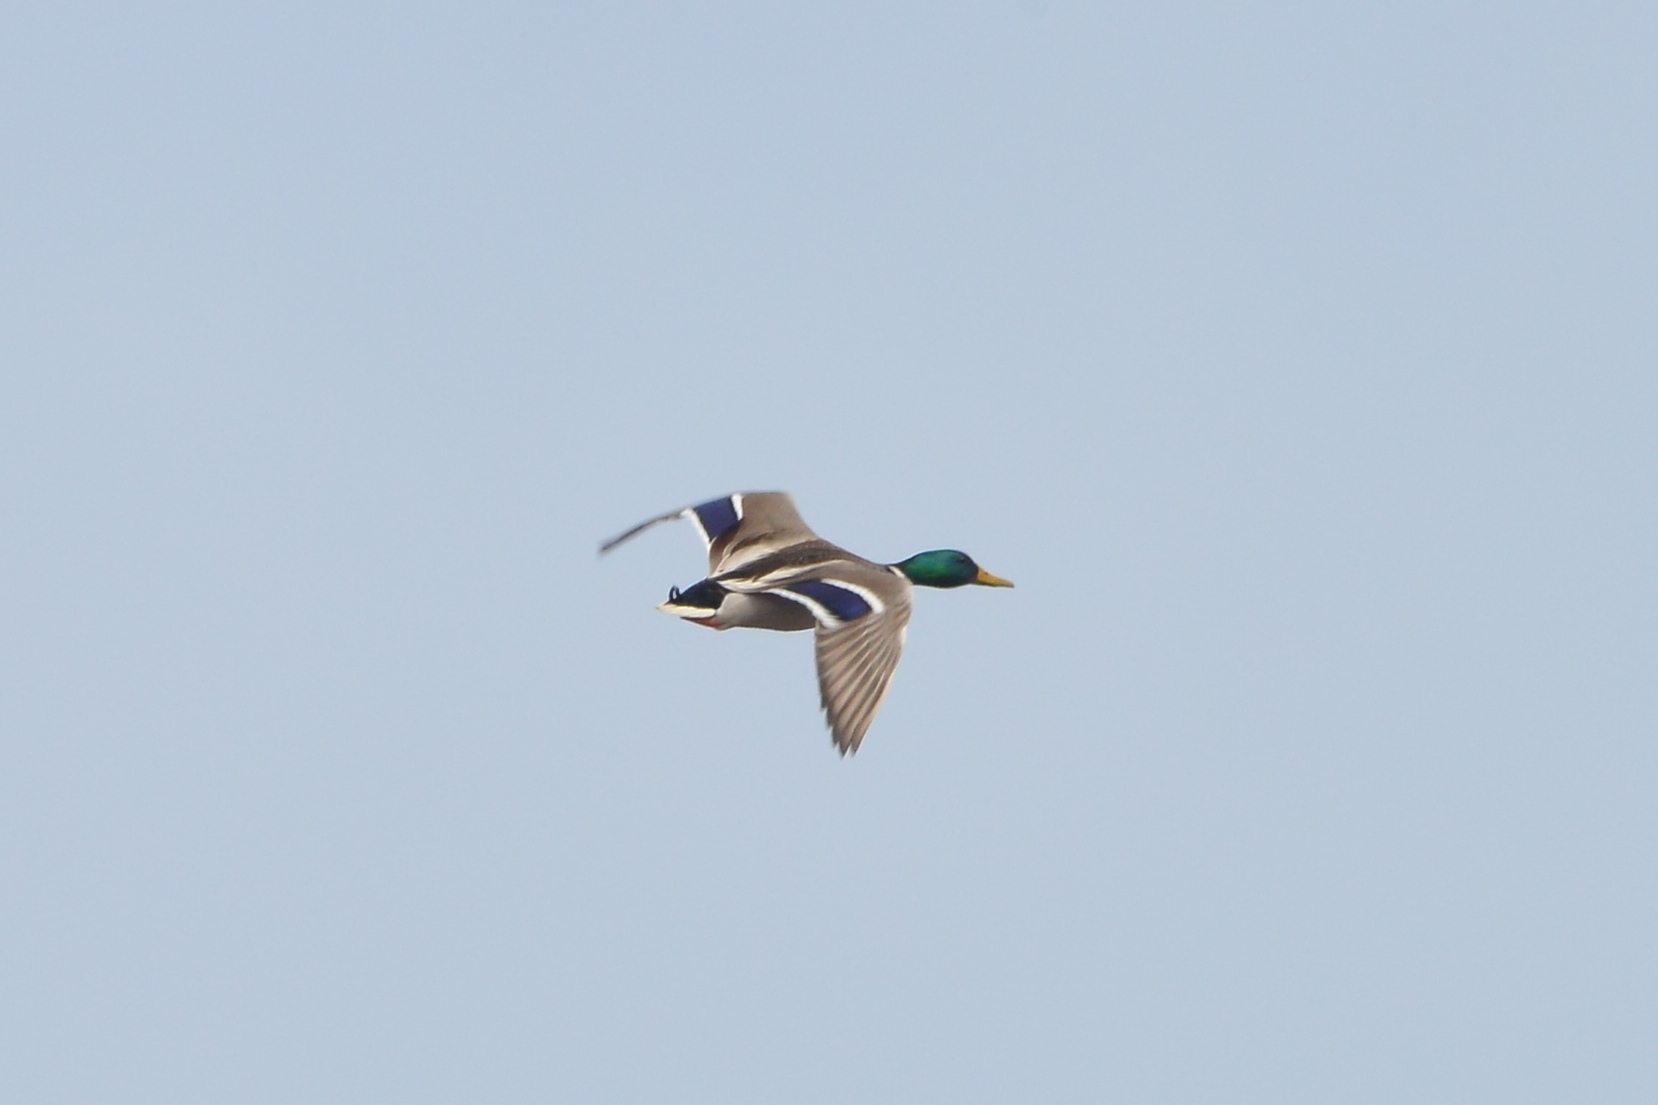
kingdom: Animalia
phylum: Chordata
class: Aves
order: Anseriformes
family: Anatidae
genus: Anas
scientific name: Anas platyrhynchos
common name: Mallard
